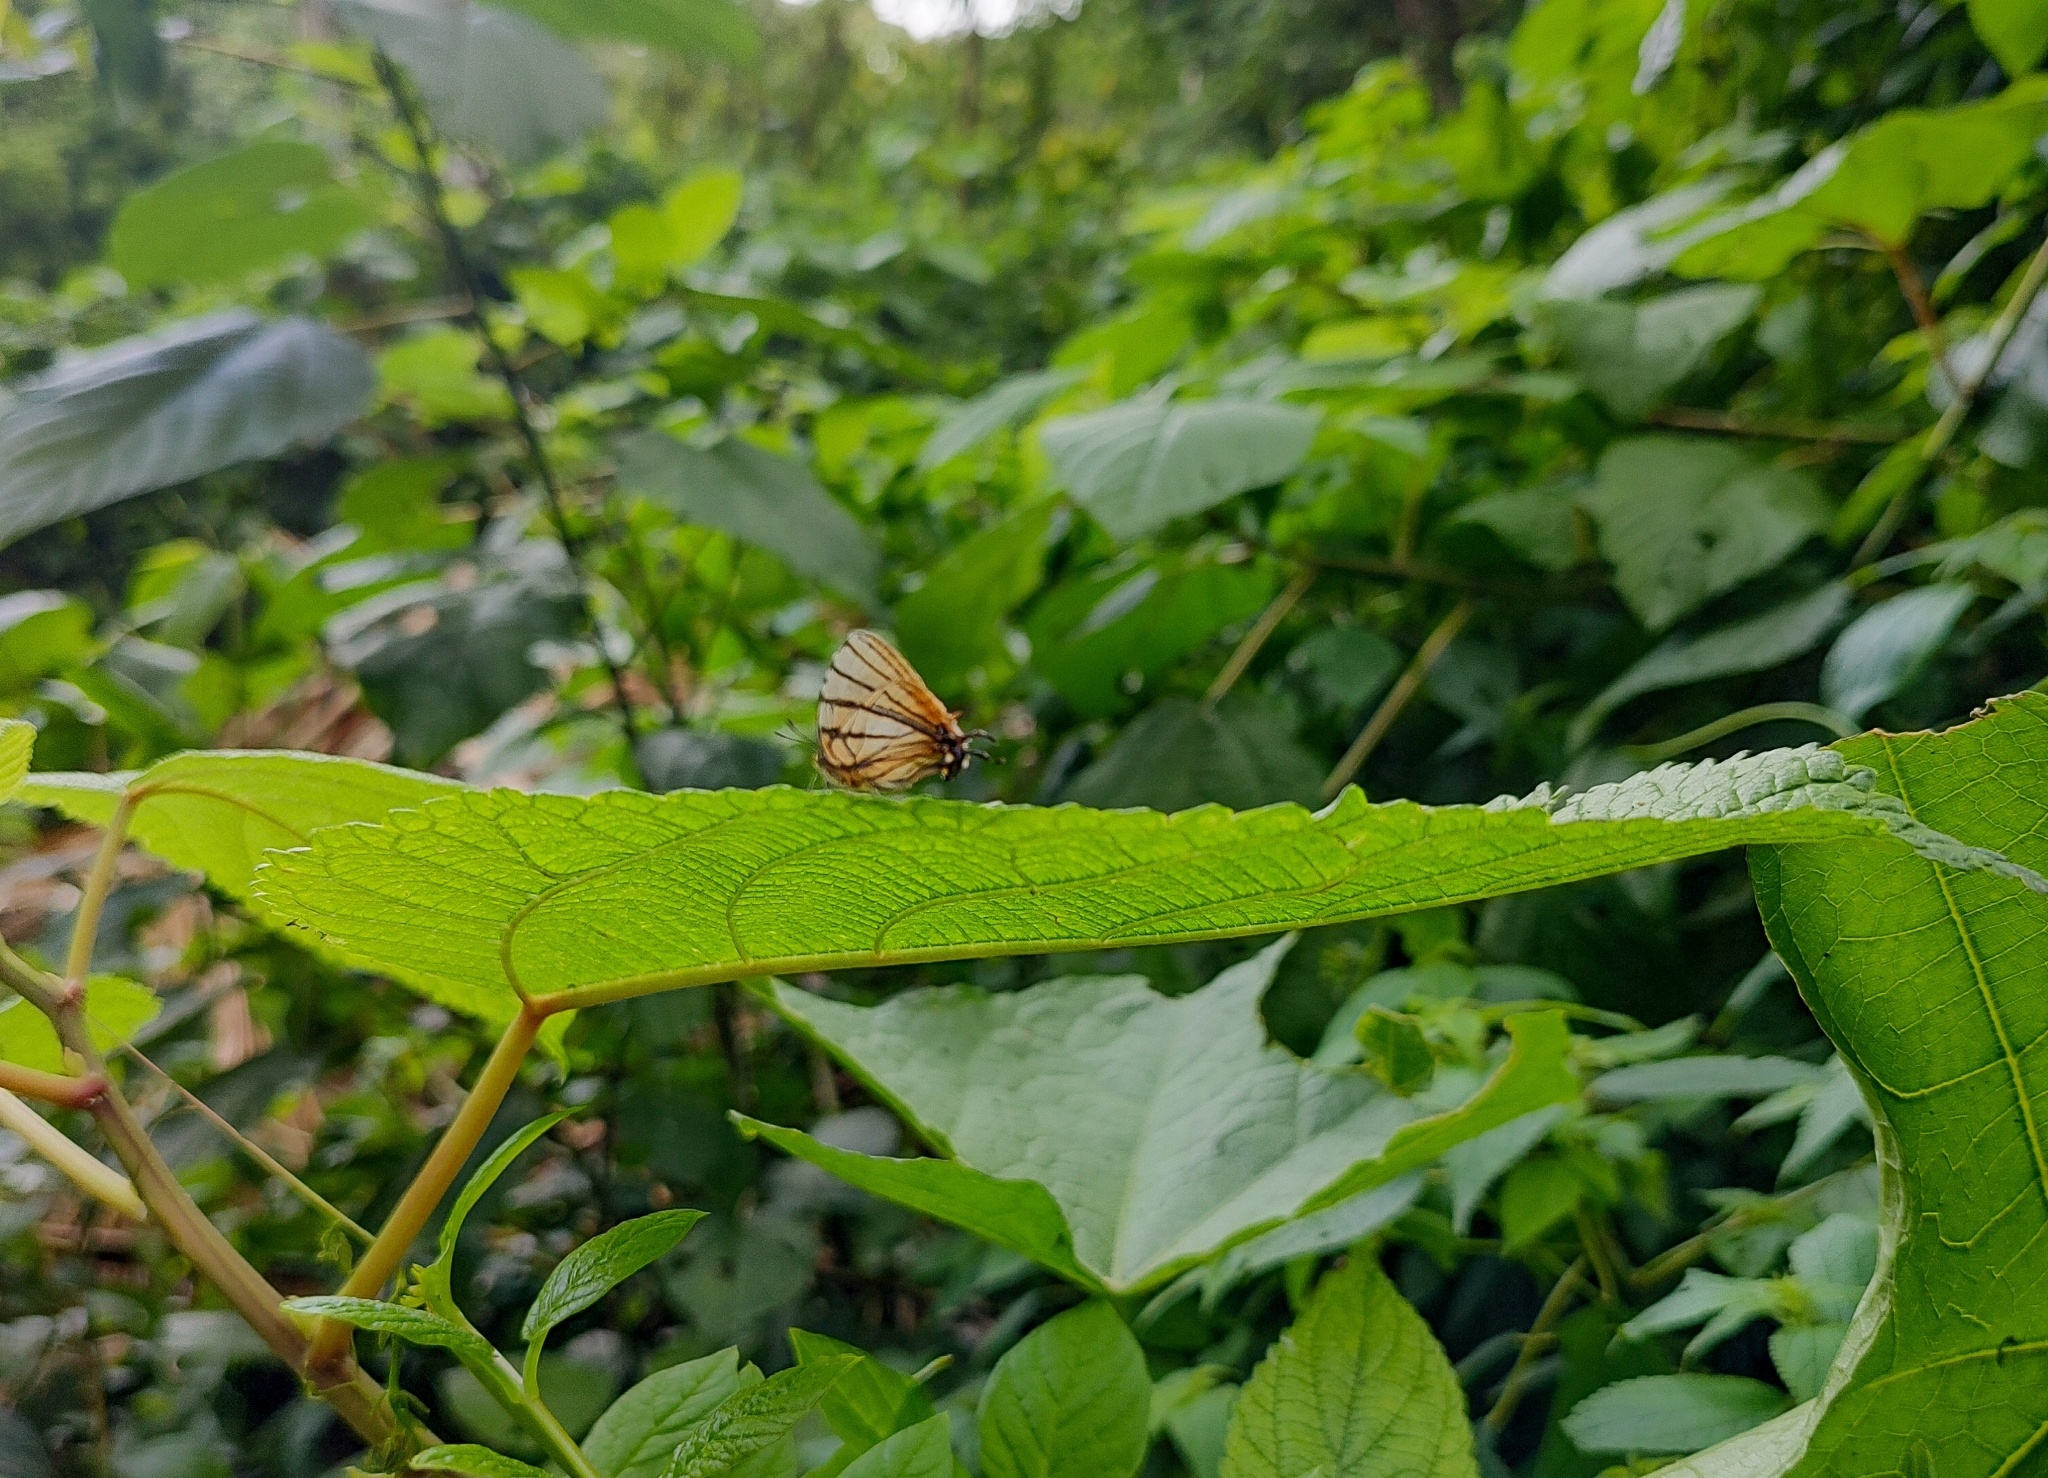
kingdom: Animalia
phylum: Arthropoda
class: Insecta
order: Lepidoptera
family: Lycaenidae
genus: Arawacus
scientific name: Arawacus melibaeus
